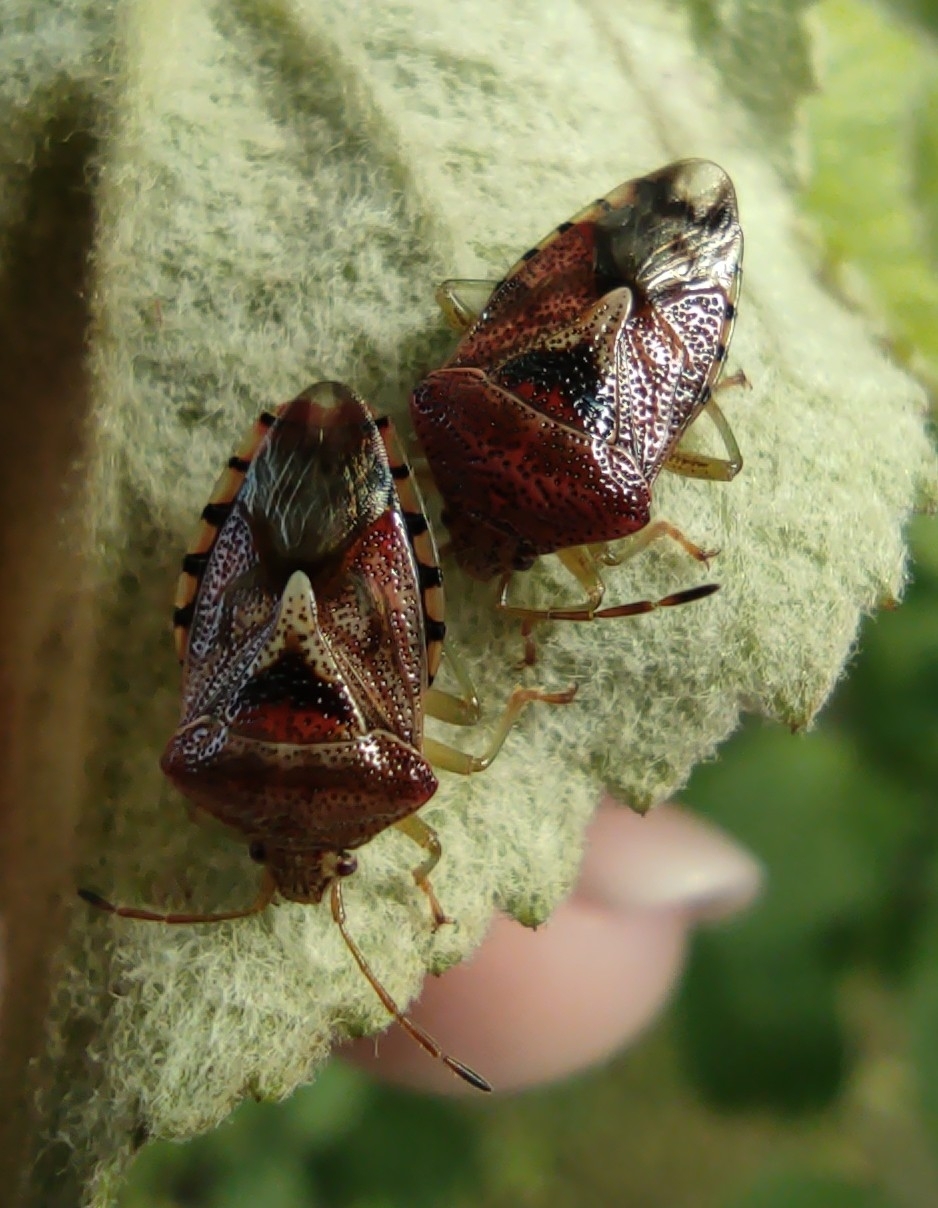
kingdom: Animalia
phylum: Arthropoda
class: Insecta
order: Hemiptera
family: Acanthosomatidae
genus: Elasmucha
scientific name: Elasmucha grisea
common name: Parent bug
